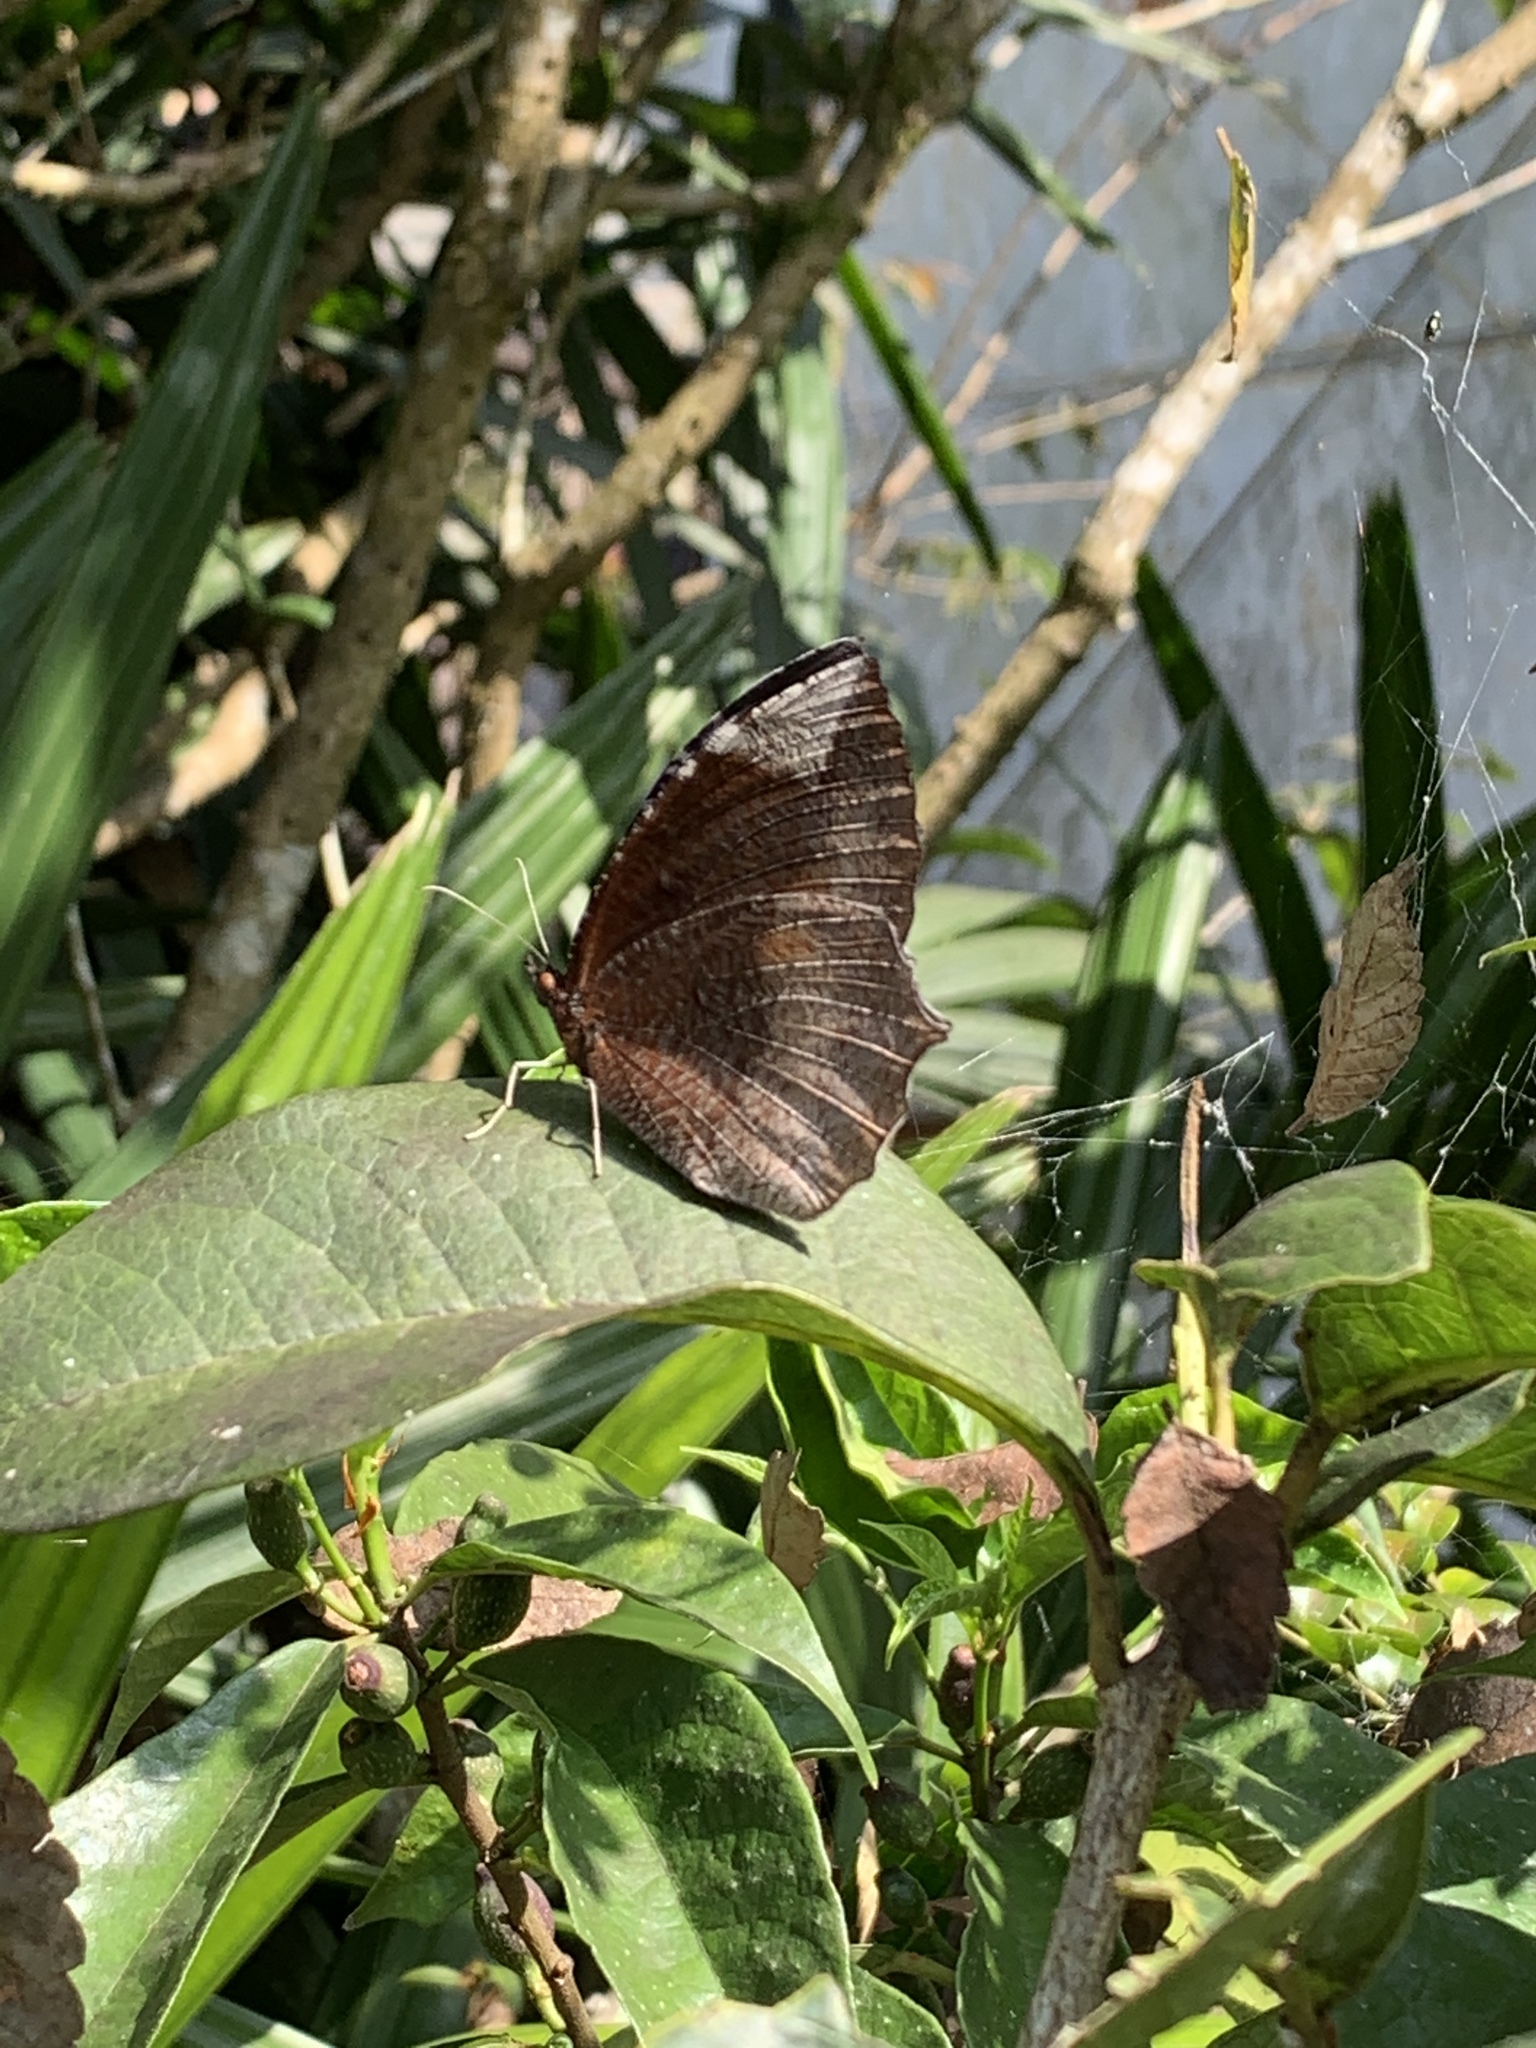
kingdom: Animalia
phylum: Arthropoda
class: Insecta
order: Lepidoptera
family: Nymphalidae
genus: Elymnias
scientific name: Elymnias hypermnestra
